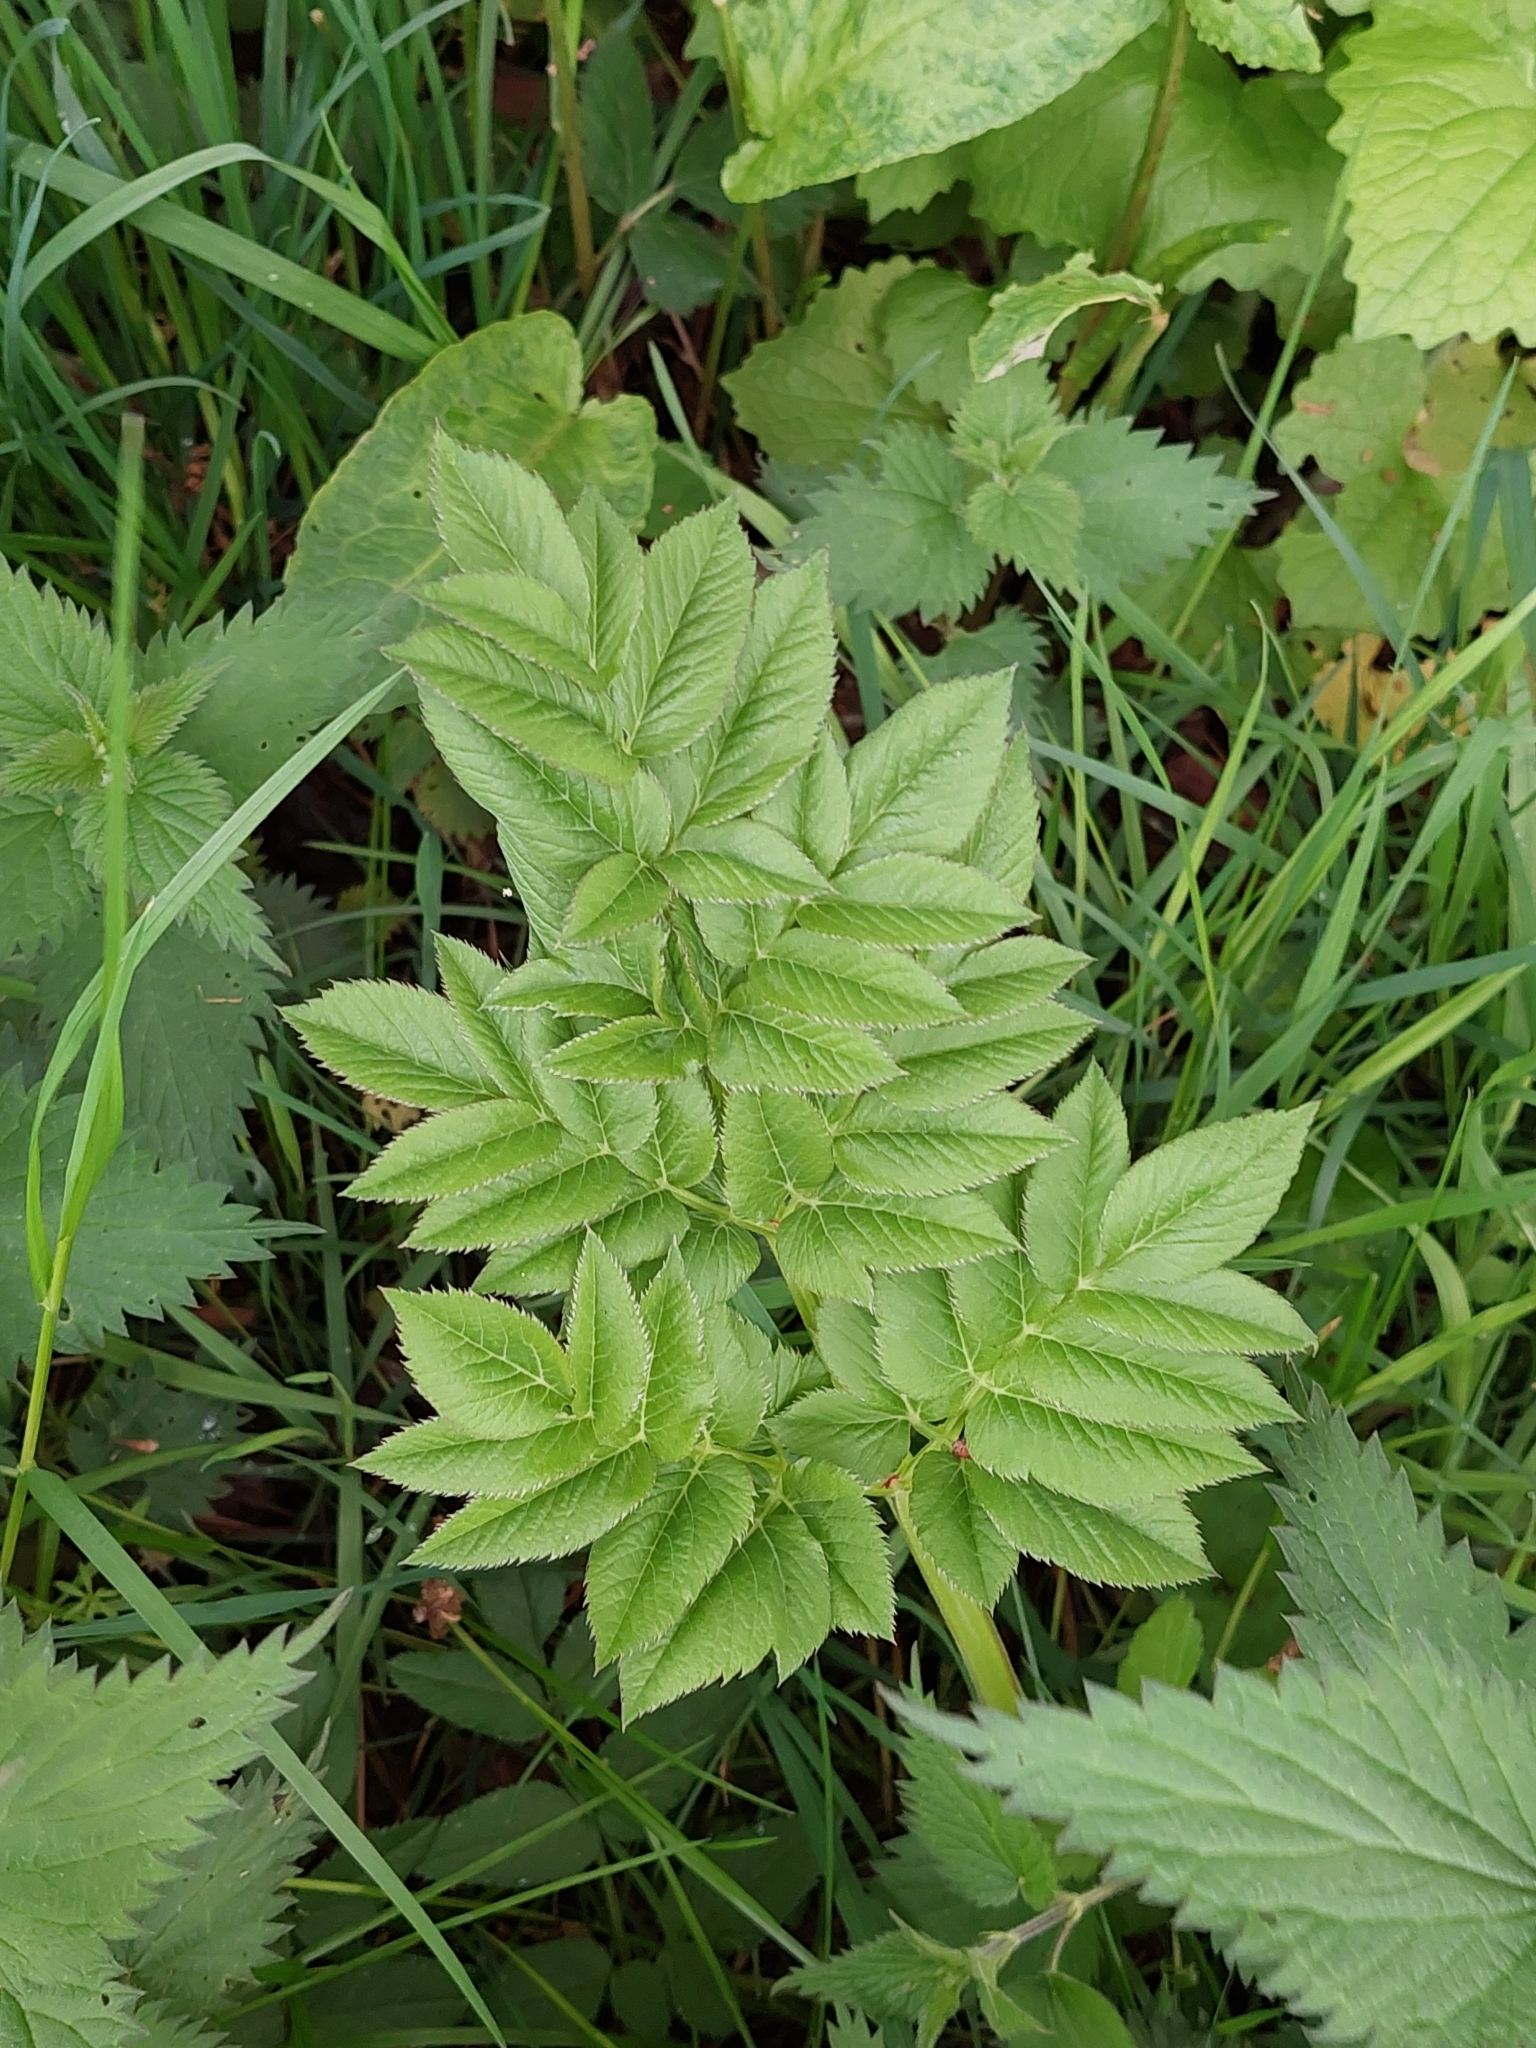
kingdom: Plantae
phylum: Tracheophyta
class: Magnoliopsida
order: Apiales
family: Apiaceae
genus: Angelica
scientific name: Angelica sylvestris
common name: Wild angelica
